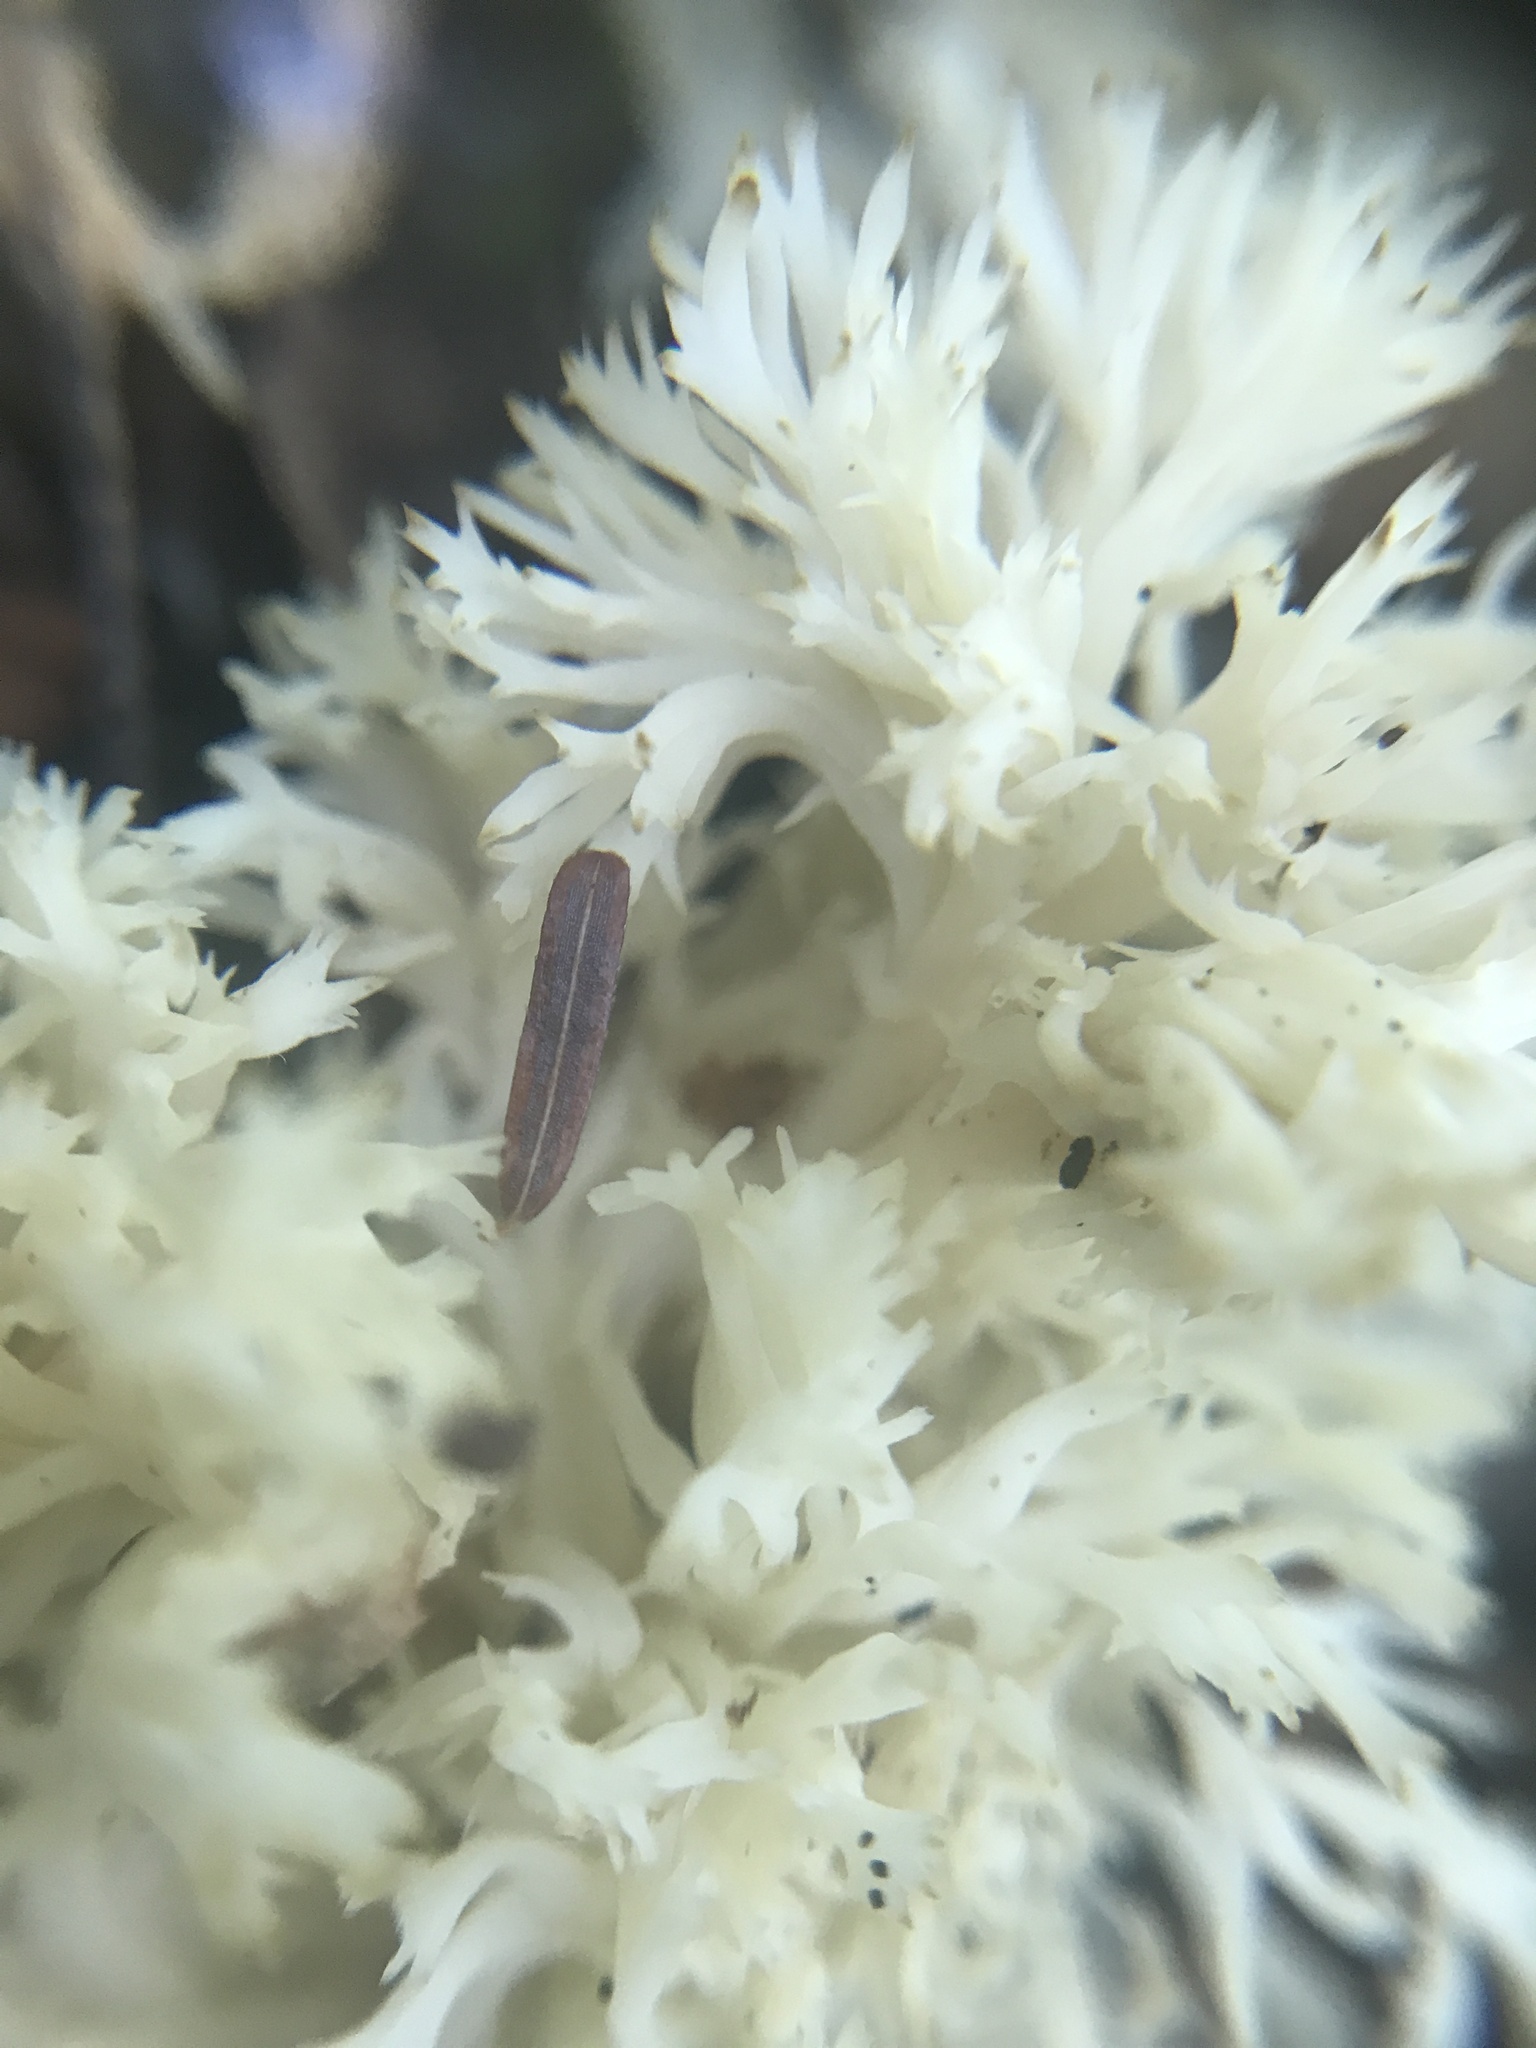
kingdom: Fungi
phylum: Basidiomycota
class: Agaricomycetes
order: Cantharellales
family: Hydnaceae
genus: Clavulina
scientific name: Clavulina coralloides
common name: Crested coral
